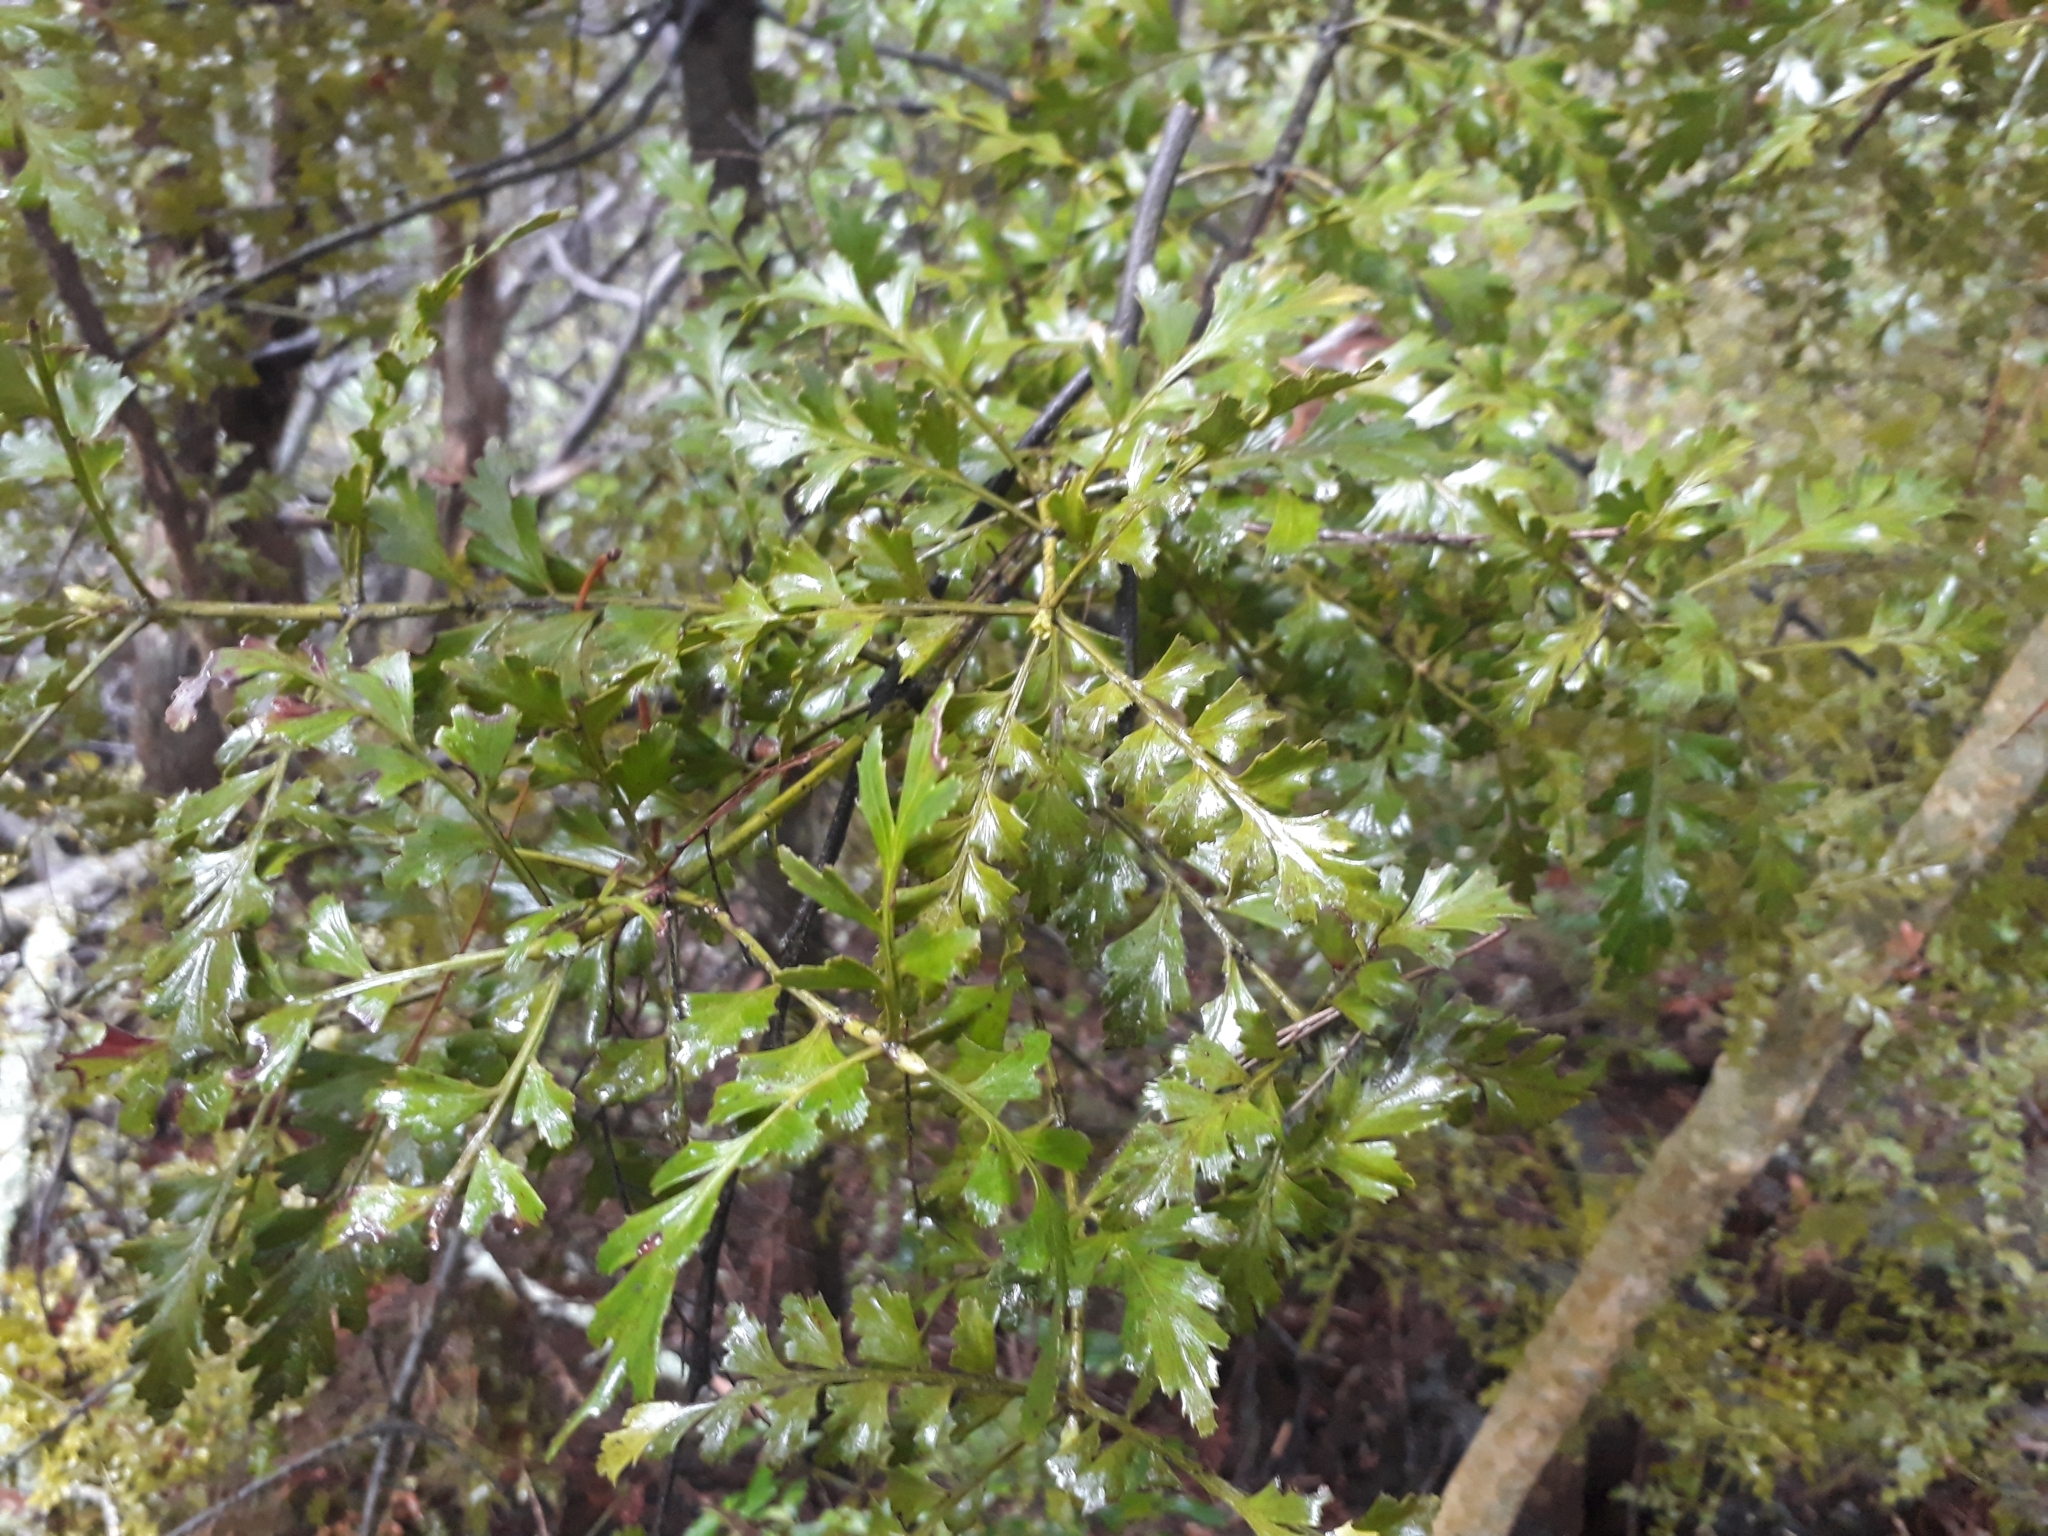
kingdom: Plantae
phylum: Tracheophyta
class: Pinopsida
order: Pinales
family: Phyllocladaceae
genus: Phyllocladus
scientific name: Phyllocladus trichomanoides
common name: Celery pine
